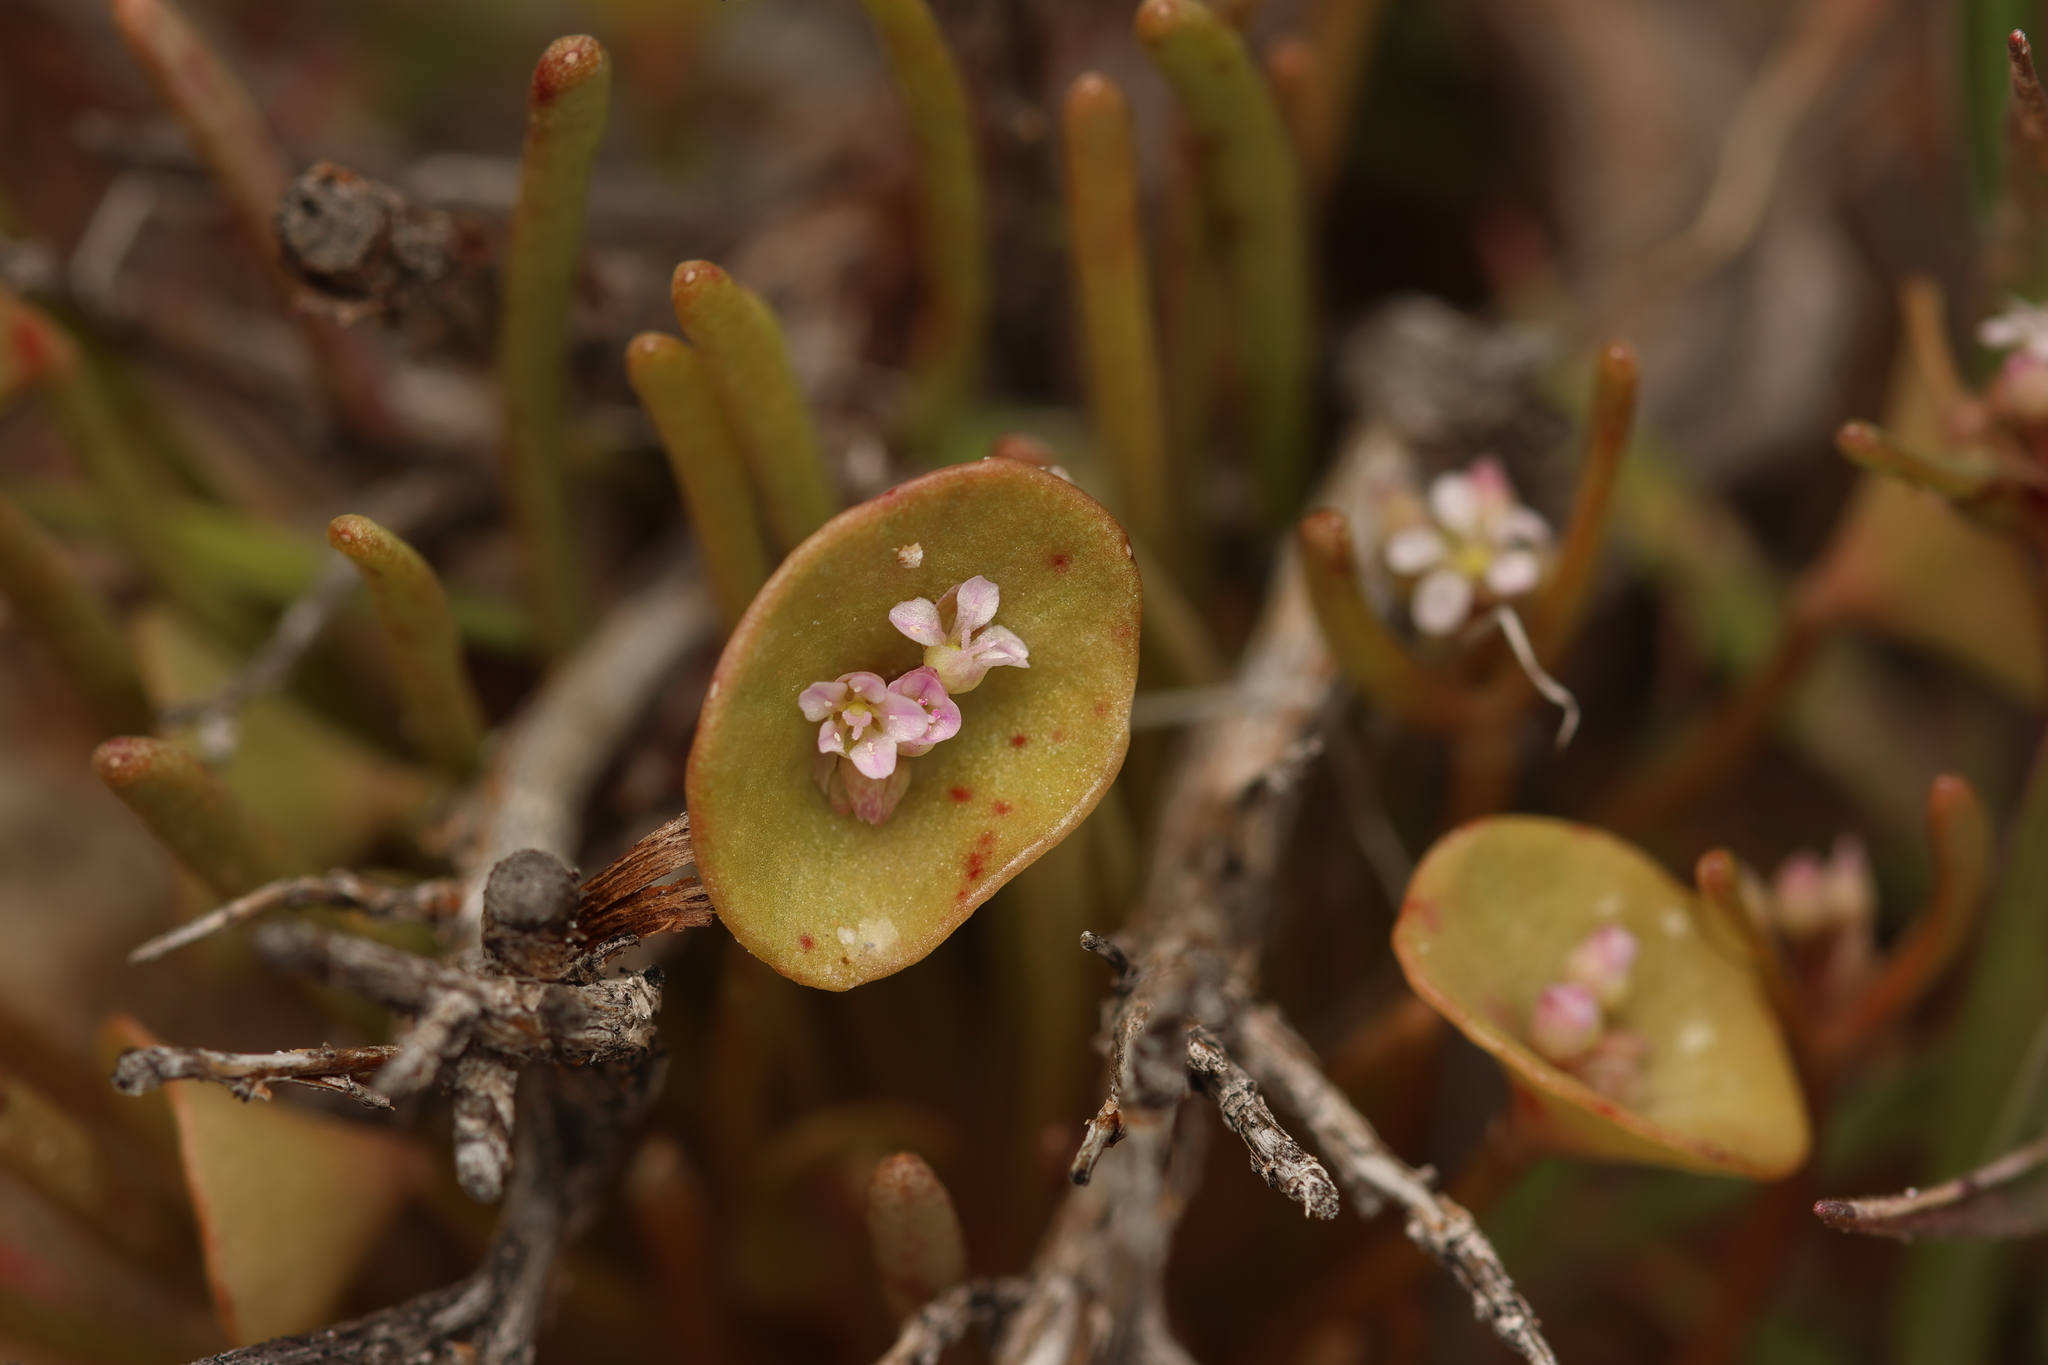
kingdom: Plantae
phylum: Tracheophyta
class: Magnoliopsida
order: Caryophyllales
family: Montiaceae
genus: Claytonia
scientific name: Claytonia parviflora
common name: Indian-lettuce
